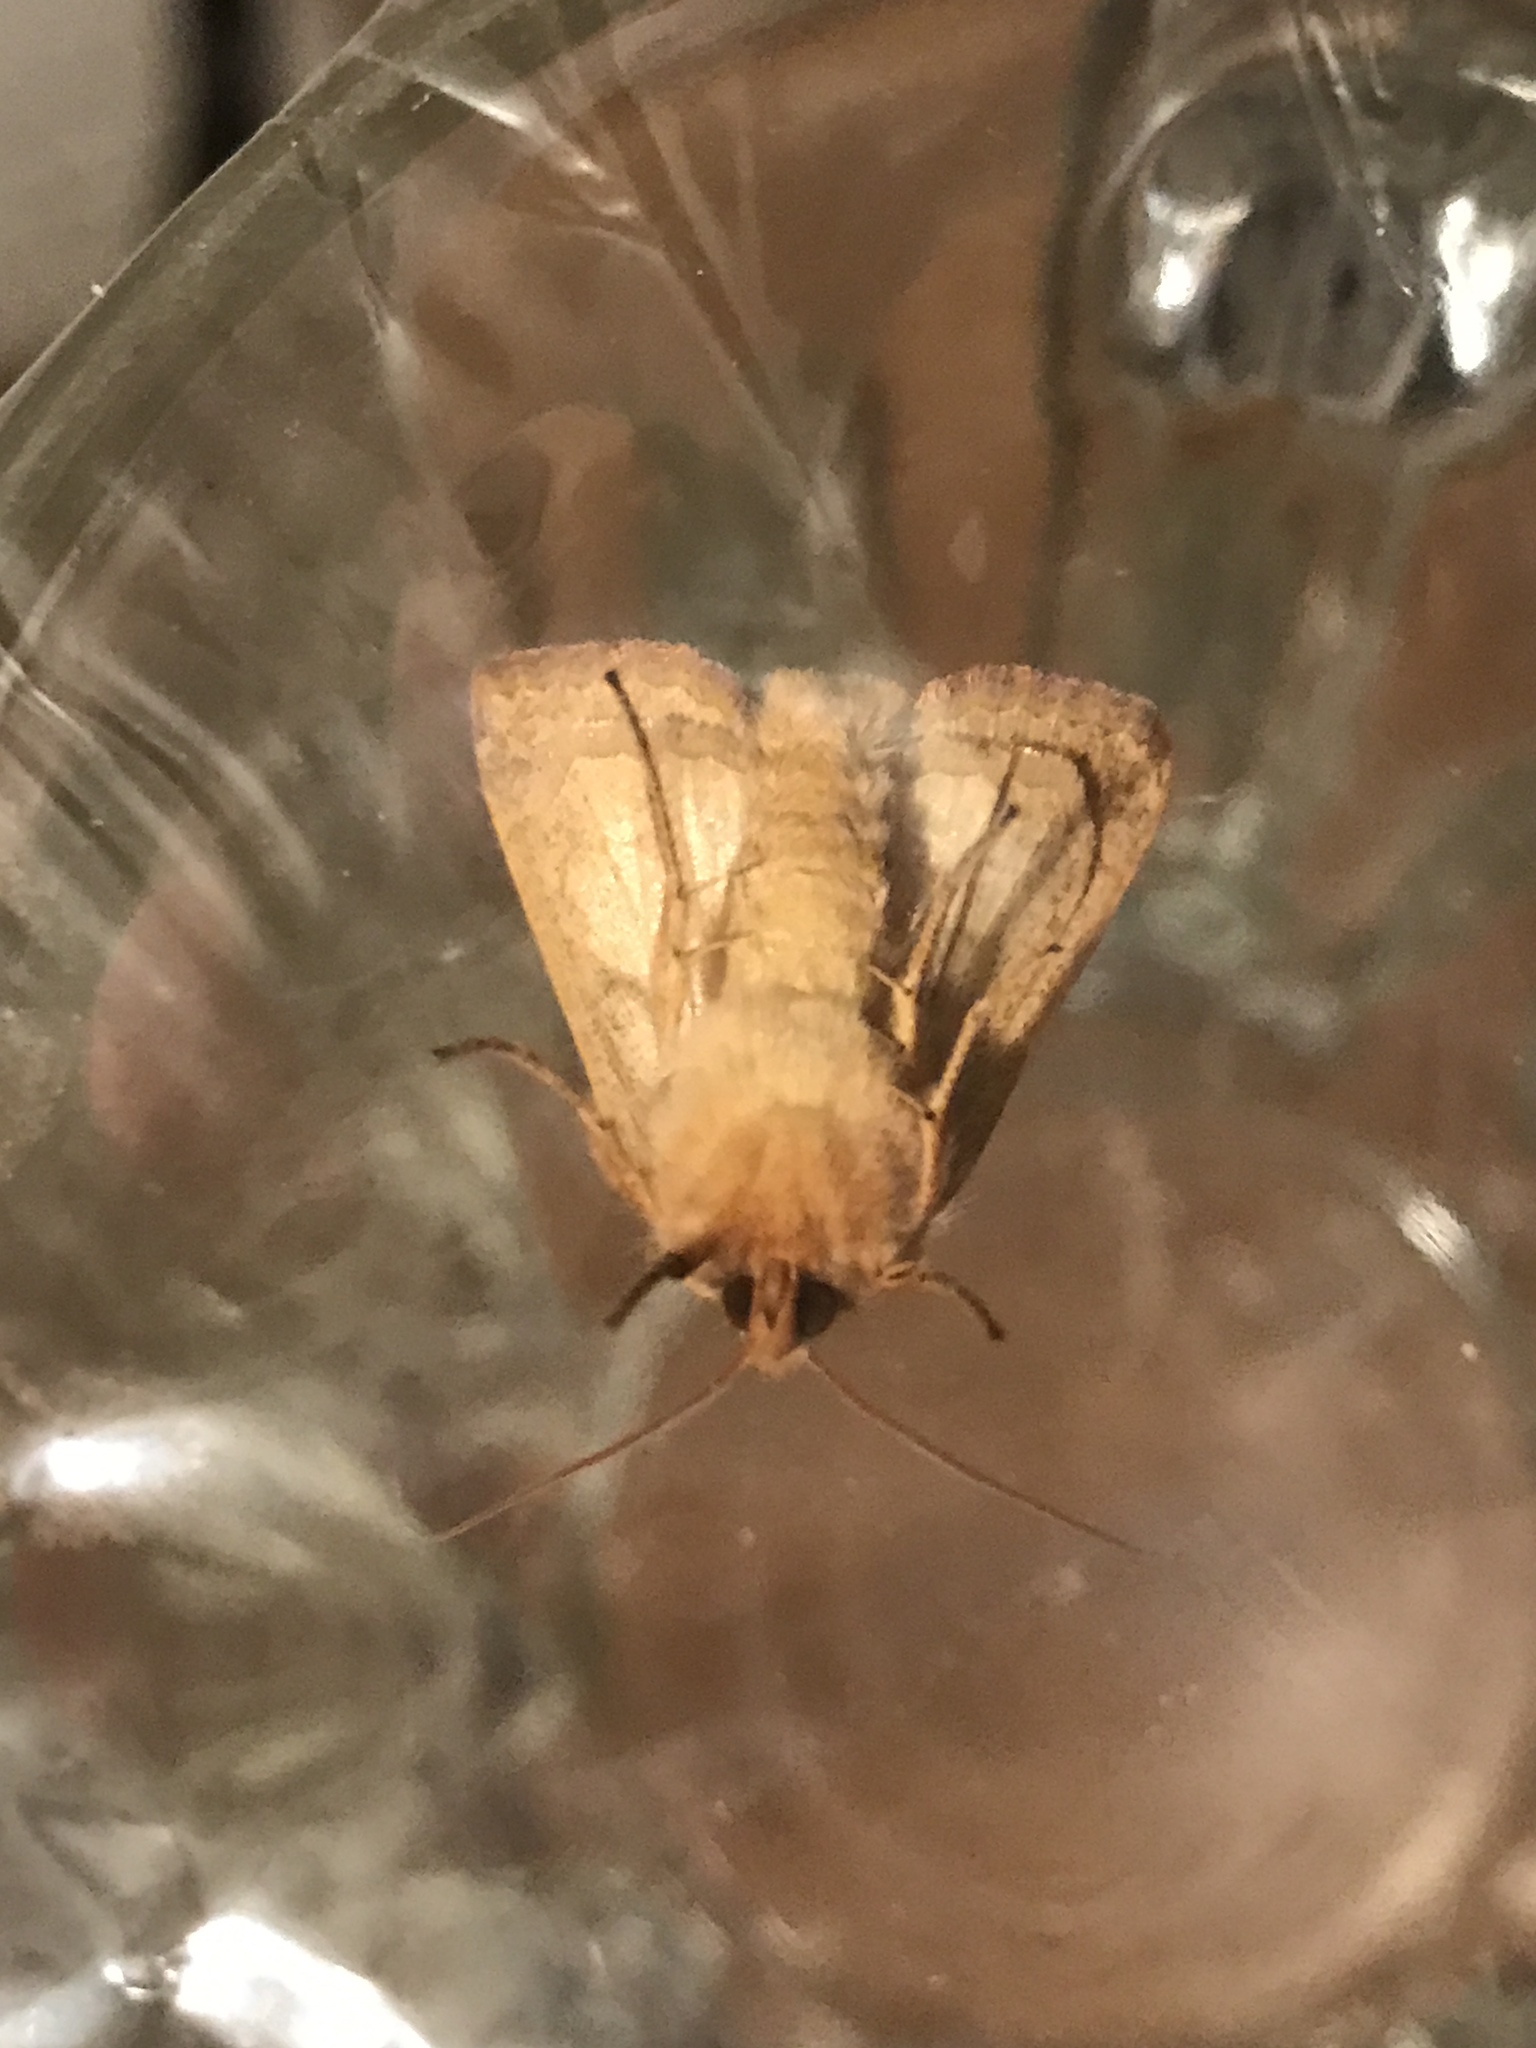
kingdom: Animalia
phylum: Arthropoda
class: Insecta
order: Lepidoptera
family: Noctuidae
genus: Agrochola
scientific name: Agrochola bicolorago
